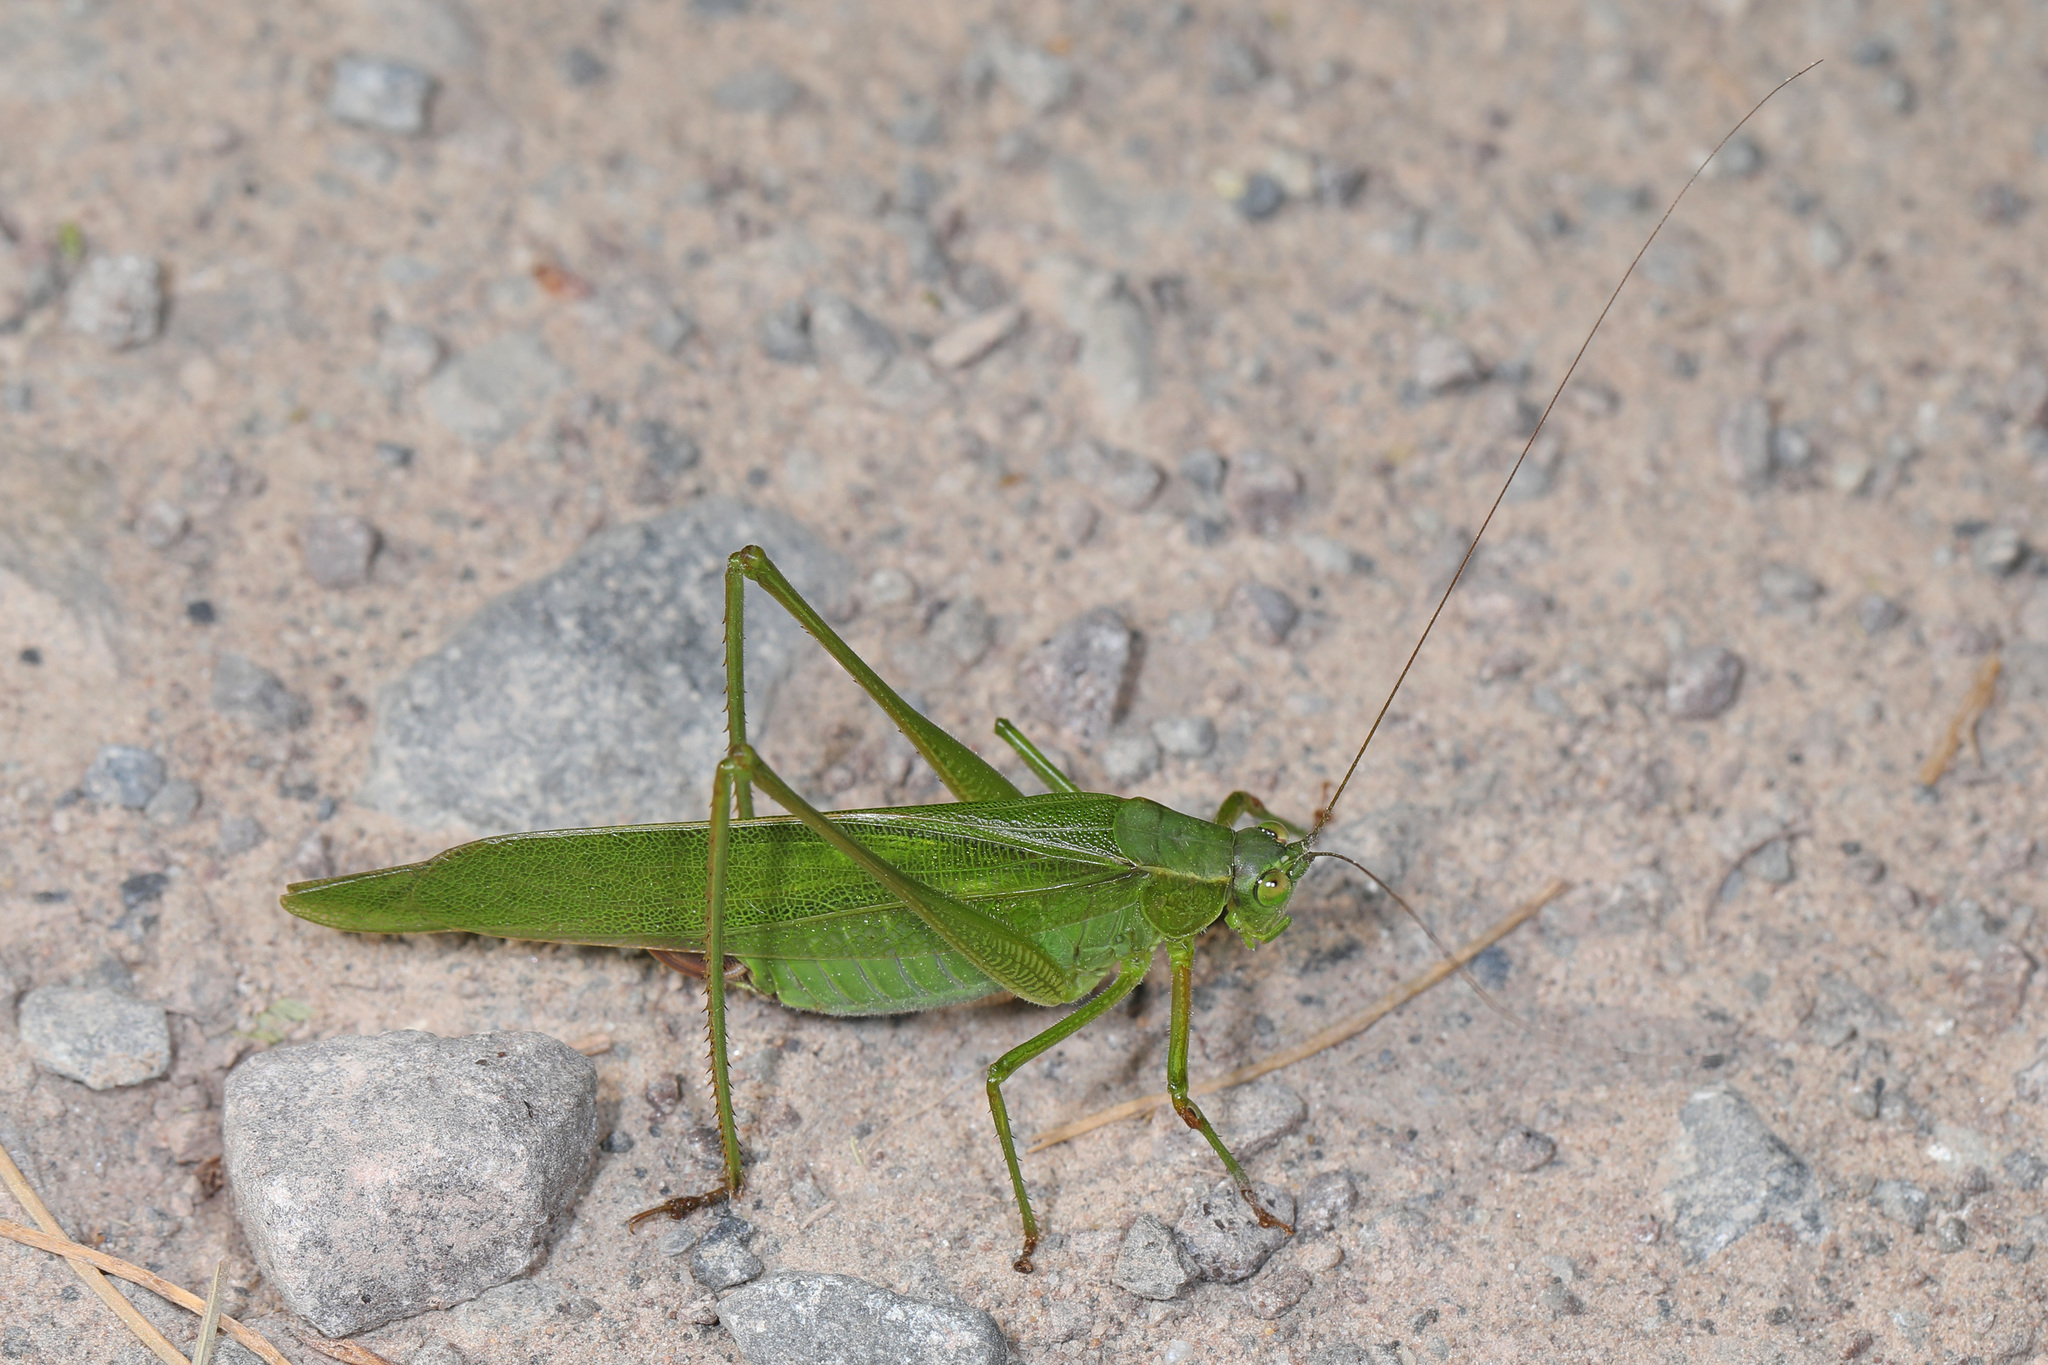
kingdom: Animalia
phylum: Arthropoda
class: Insecta
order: Orthoptera
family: Tettigoniidae
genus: Scudderia
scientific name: Scudderia furcata
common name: Fork-tailed bush katydid
